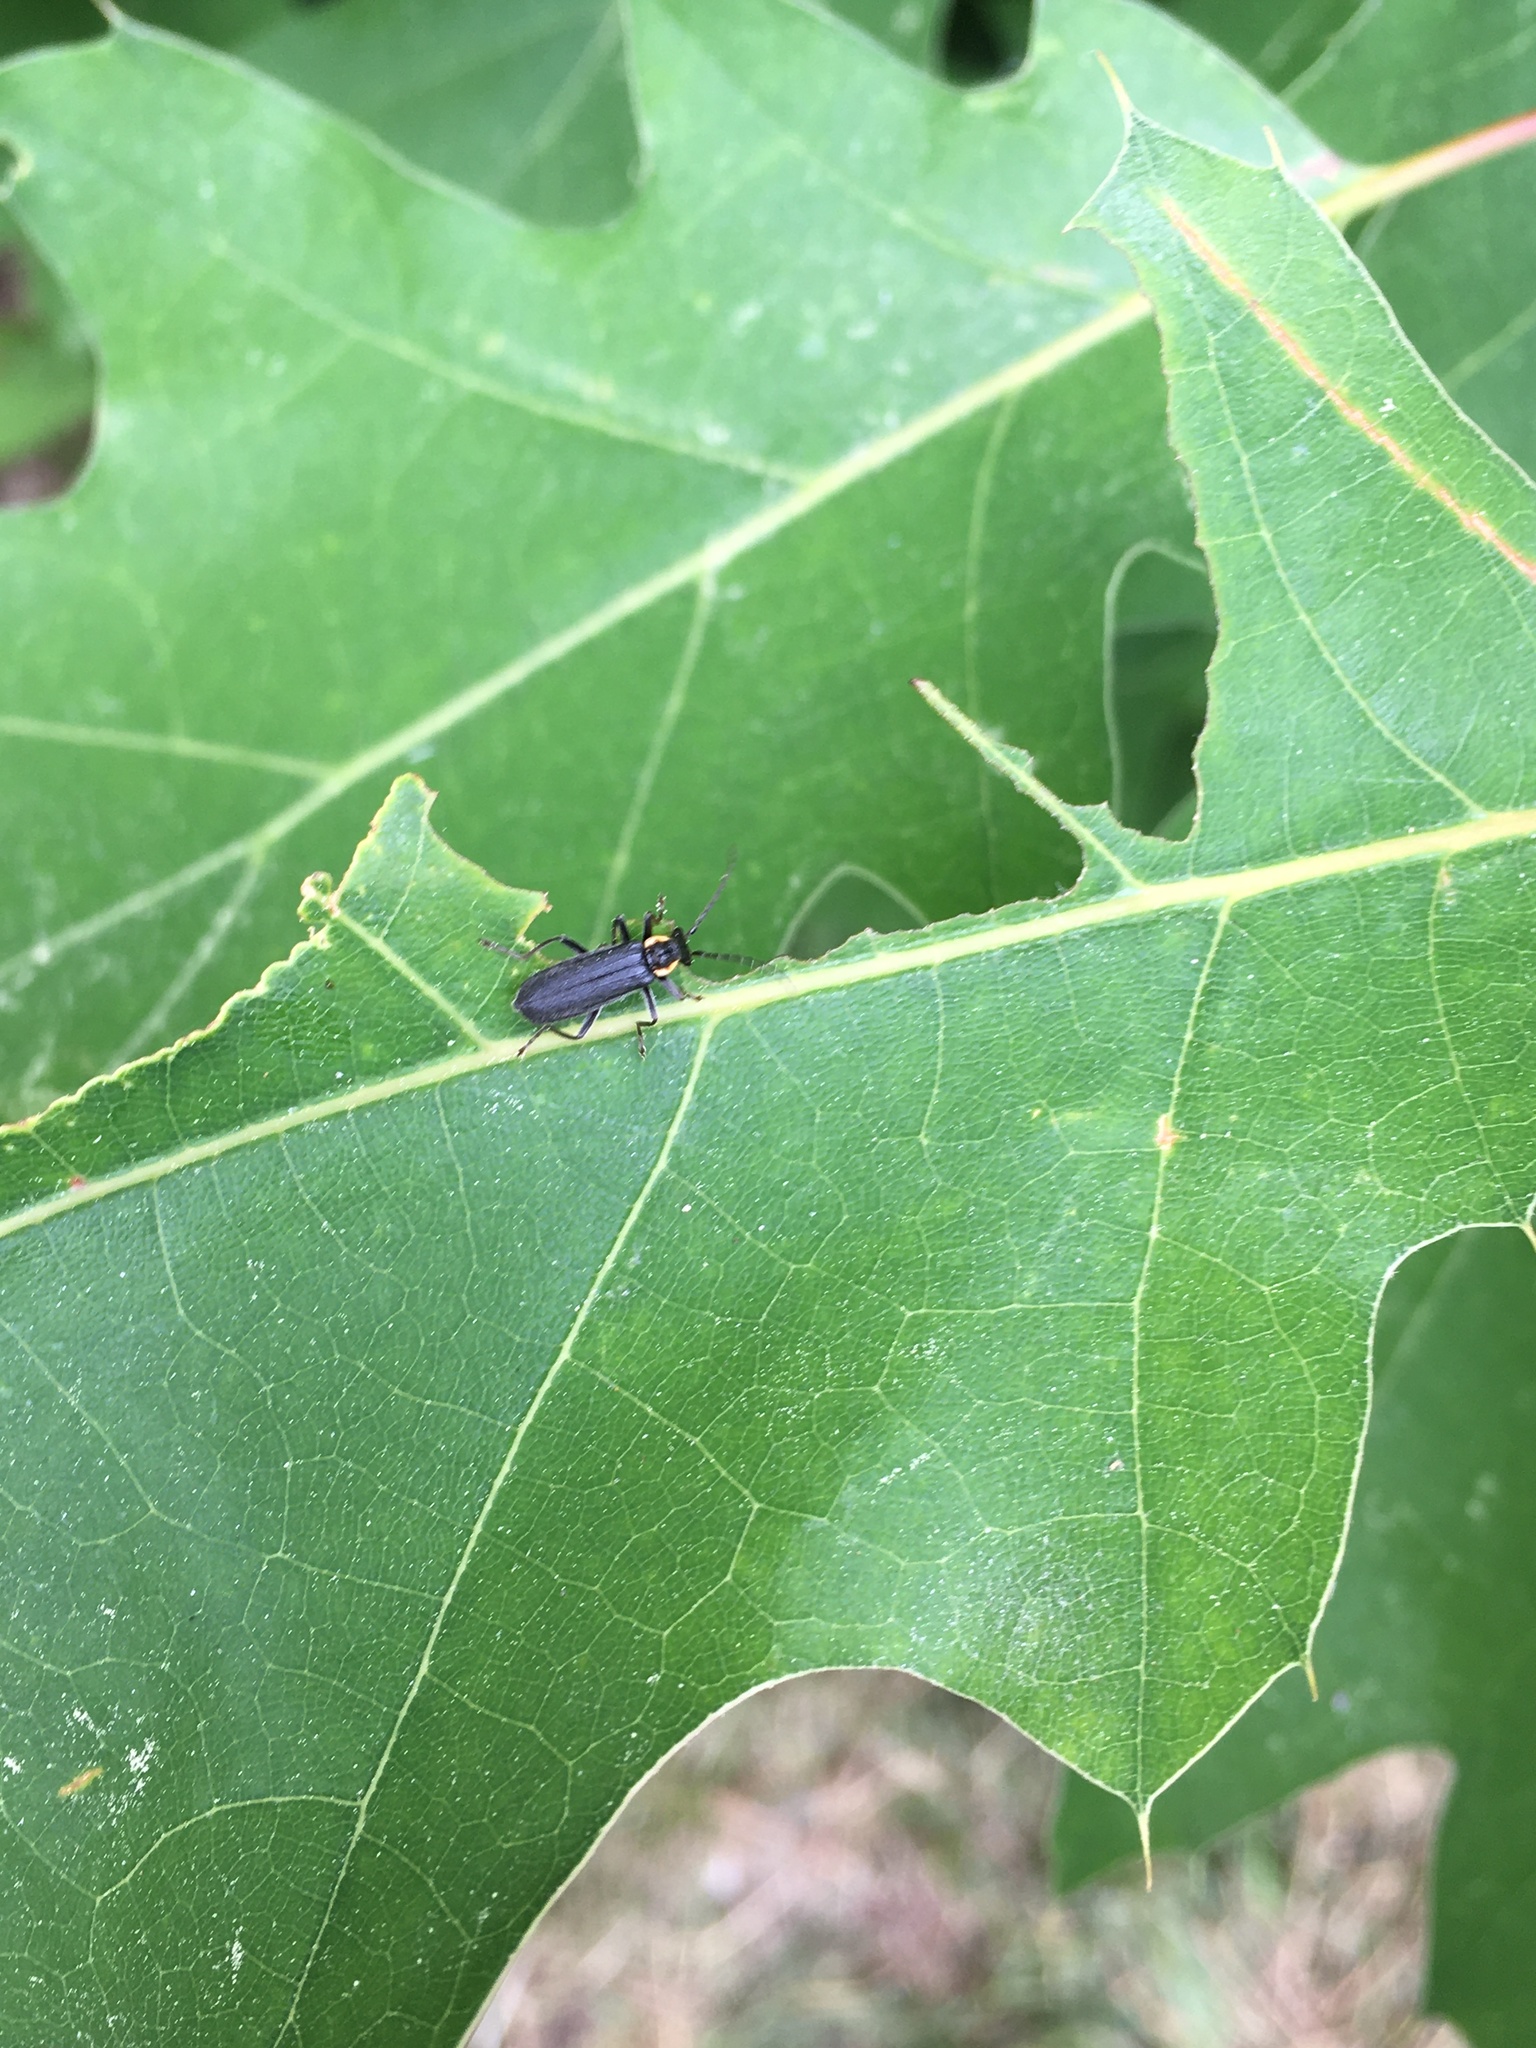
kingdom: Animalia
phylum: Arthropoda
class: Insecta
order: Coleoptera
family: Cantharidae
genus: Podabrus
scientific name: Podabrus rugosulus
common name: Wrinkled soldier beetle
